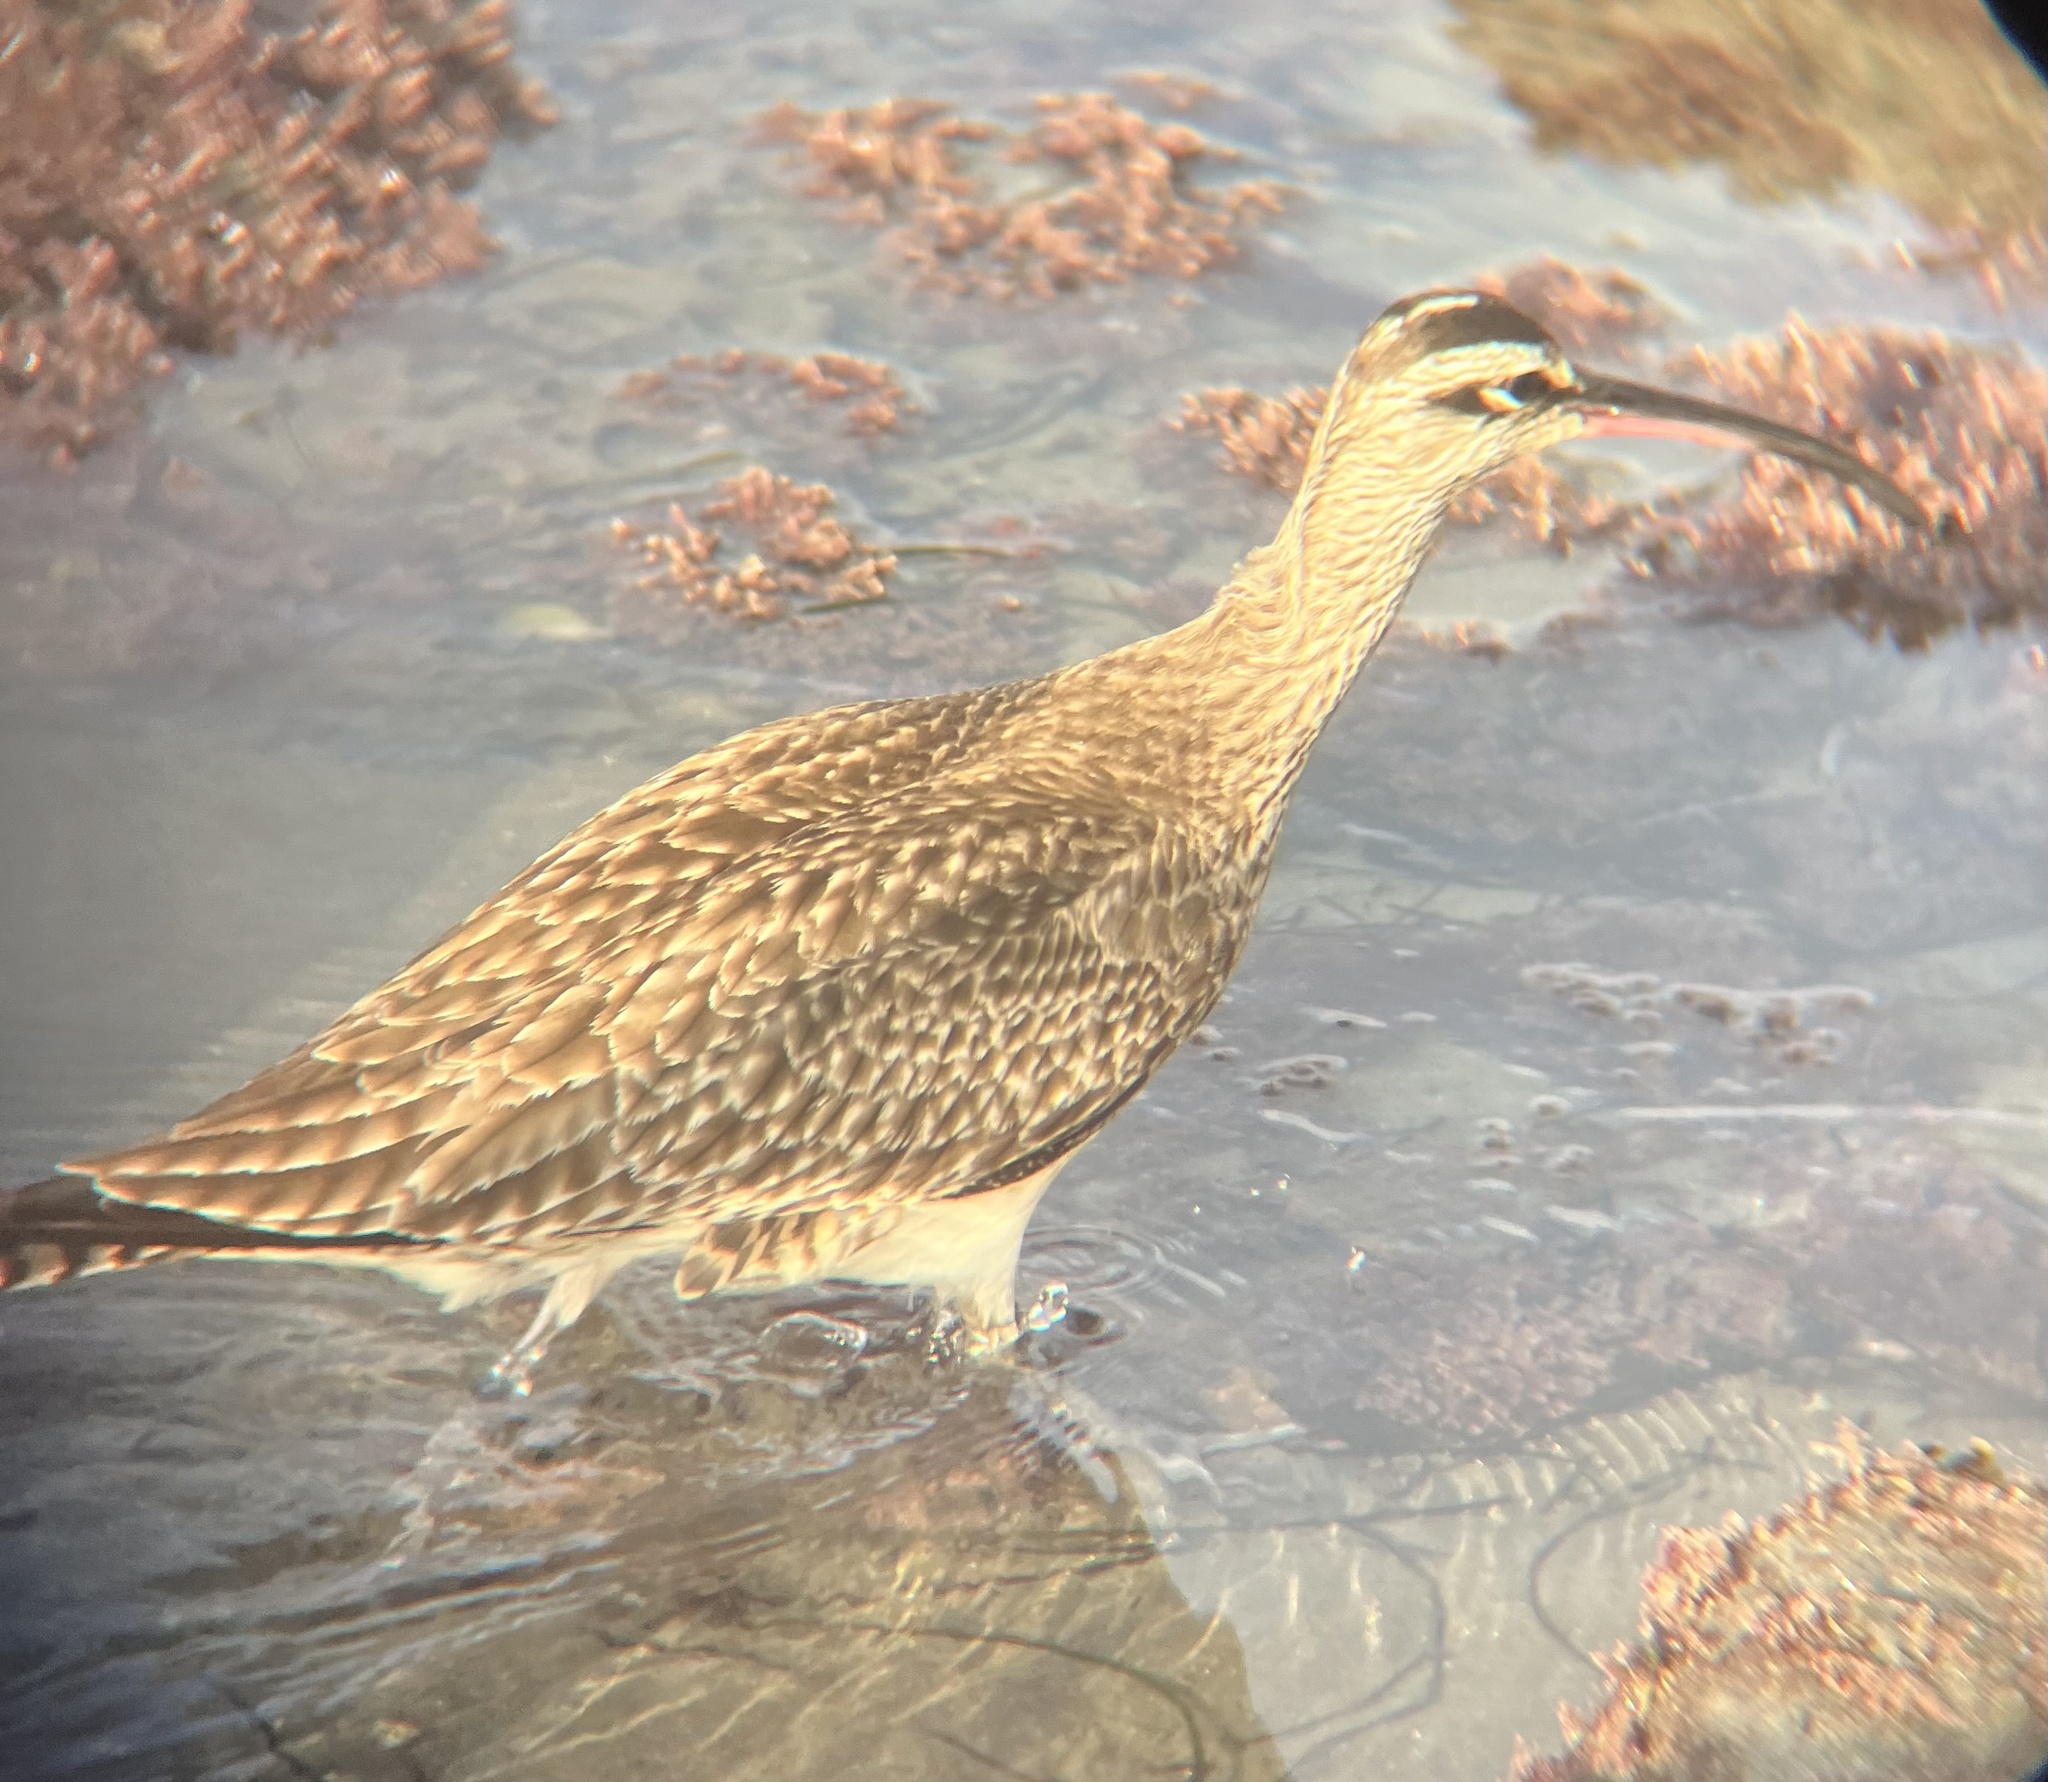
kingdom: Animalia
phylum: Chordata
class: Aves
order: Charadriiformes
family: Scolopacidae
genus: Numenius
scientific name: Numenius phaeopus
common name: Whimbrel
